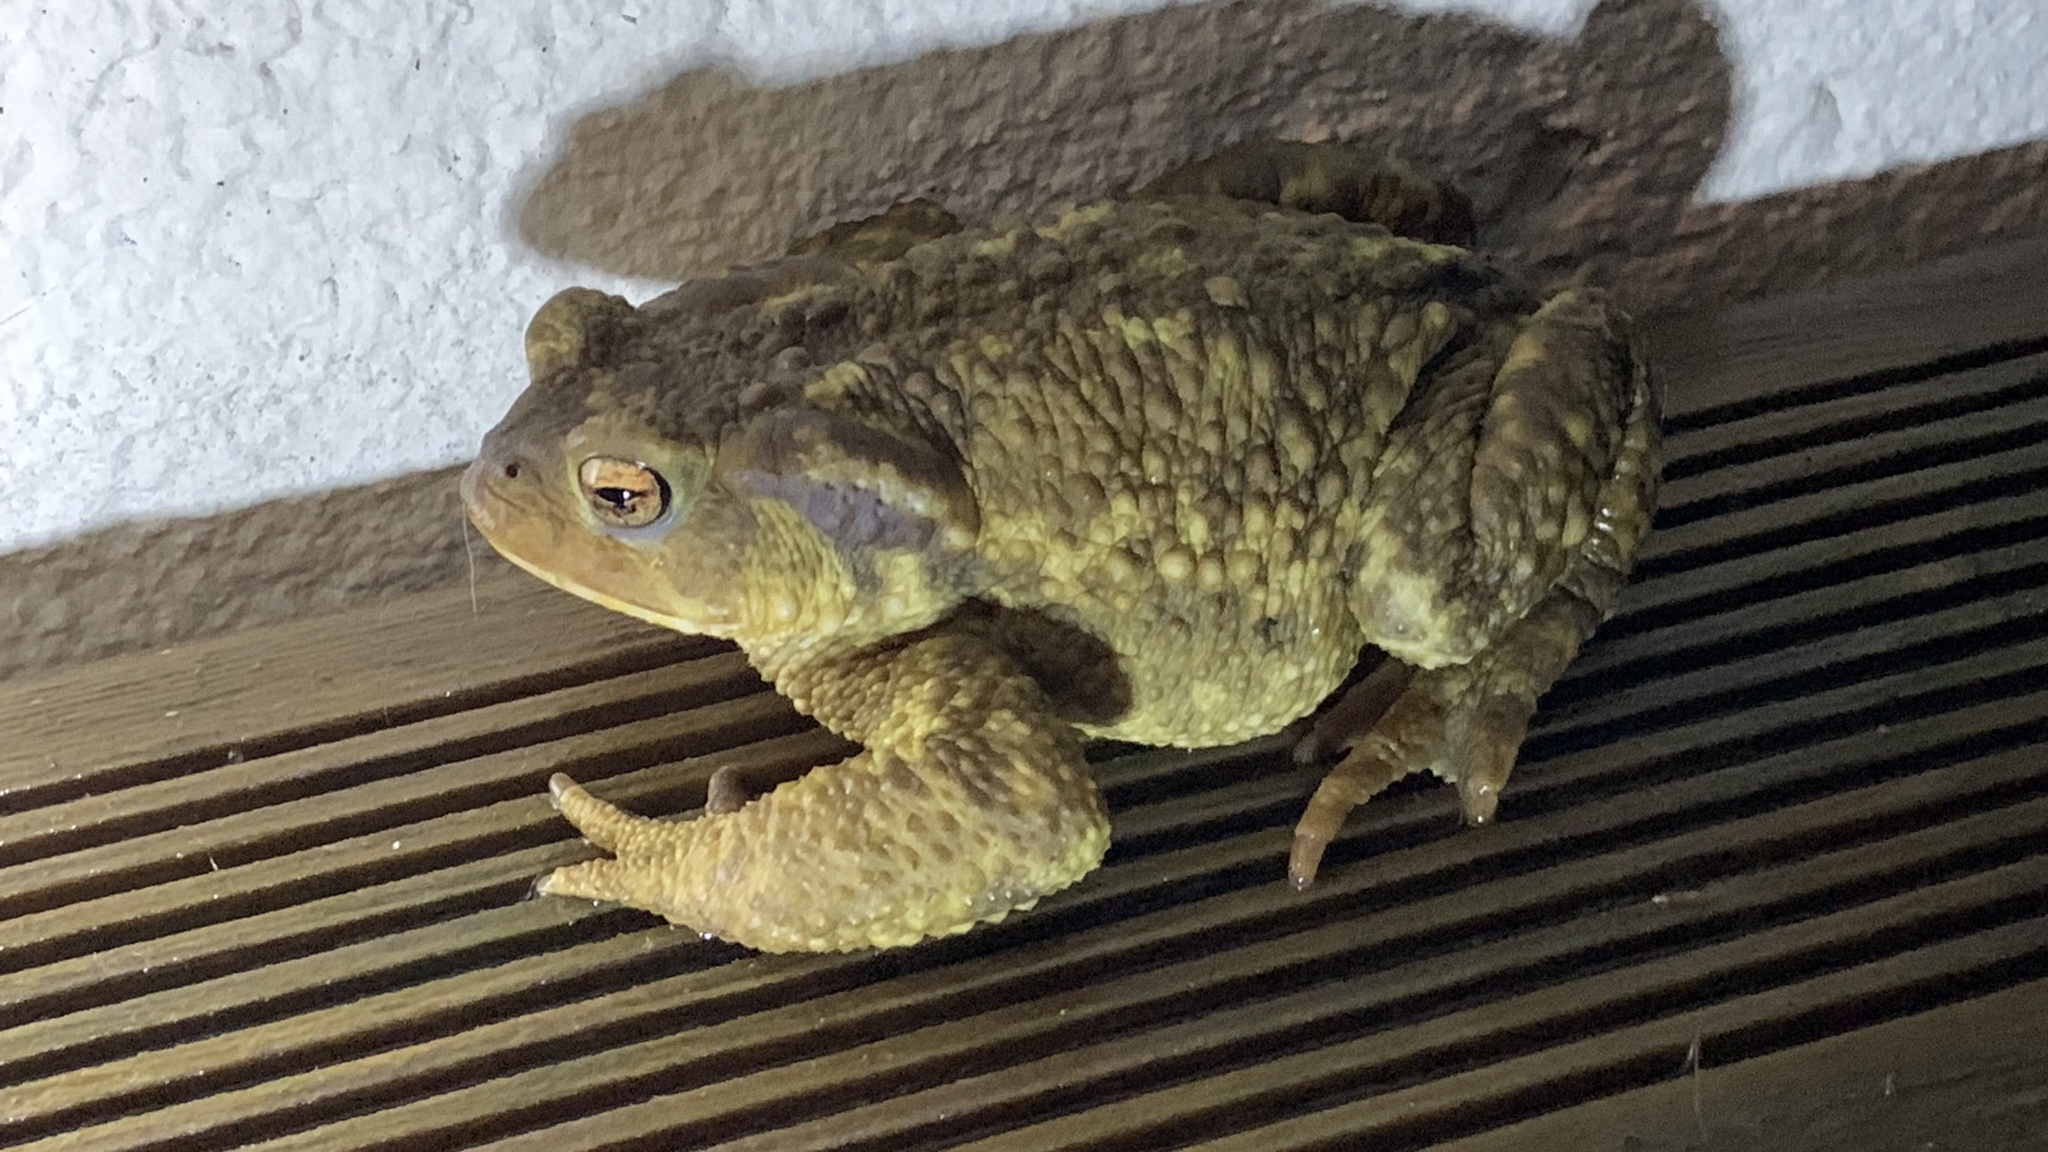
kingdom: Animalia
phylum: Chordata
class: Amphibia
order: Anura
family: Bufonidae
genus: Bufo
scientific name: Bufo spinosus
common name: Western common toad
